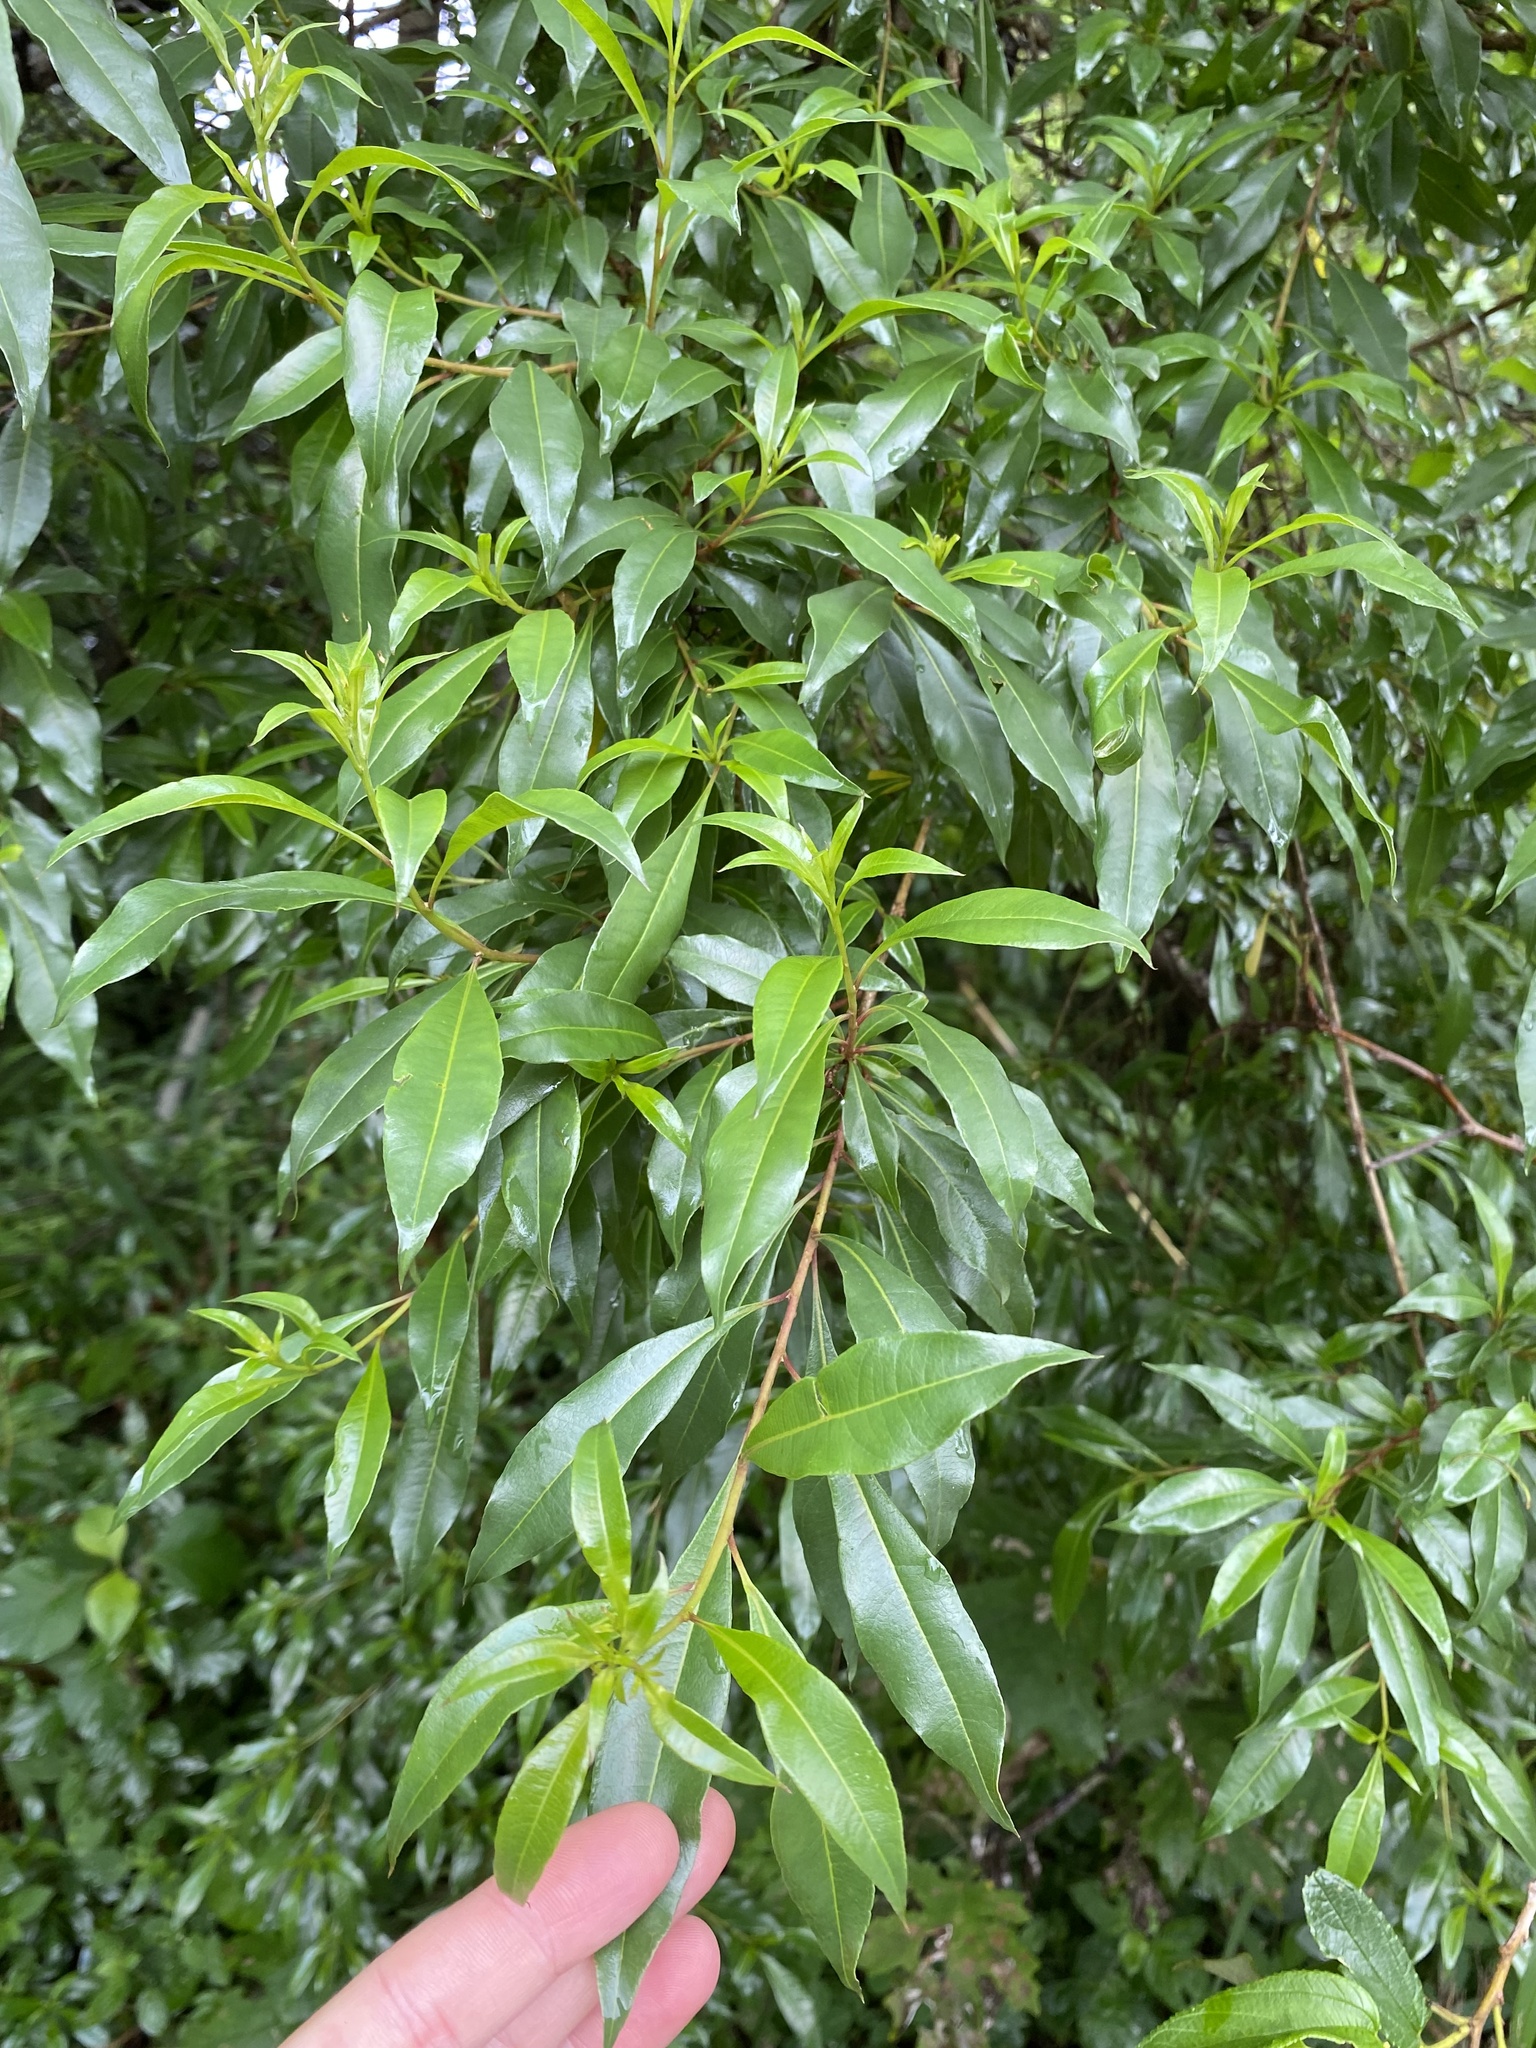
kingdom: Plantae
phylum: Tracheophyta
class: Magnoliopsida
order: Myrtales
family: Myrtaceae
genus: Heteropyxis
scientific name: Heteropyxis natalensis
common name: Lavender tree
